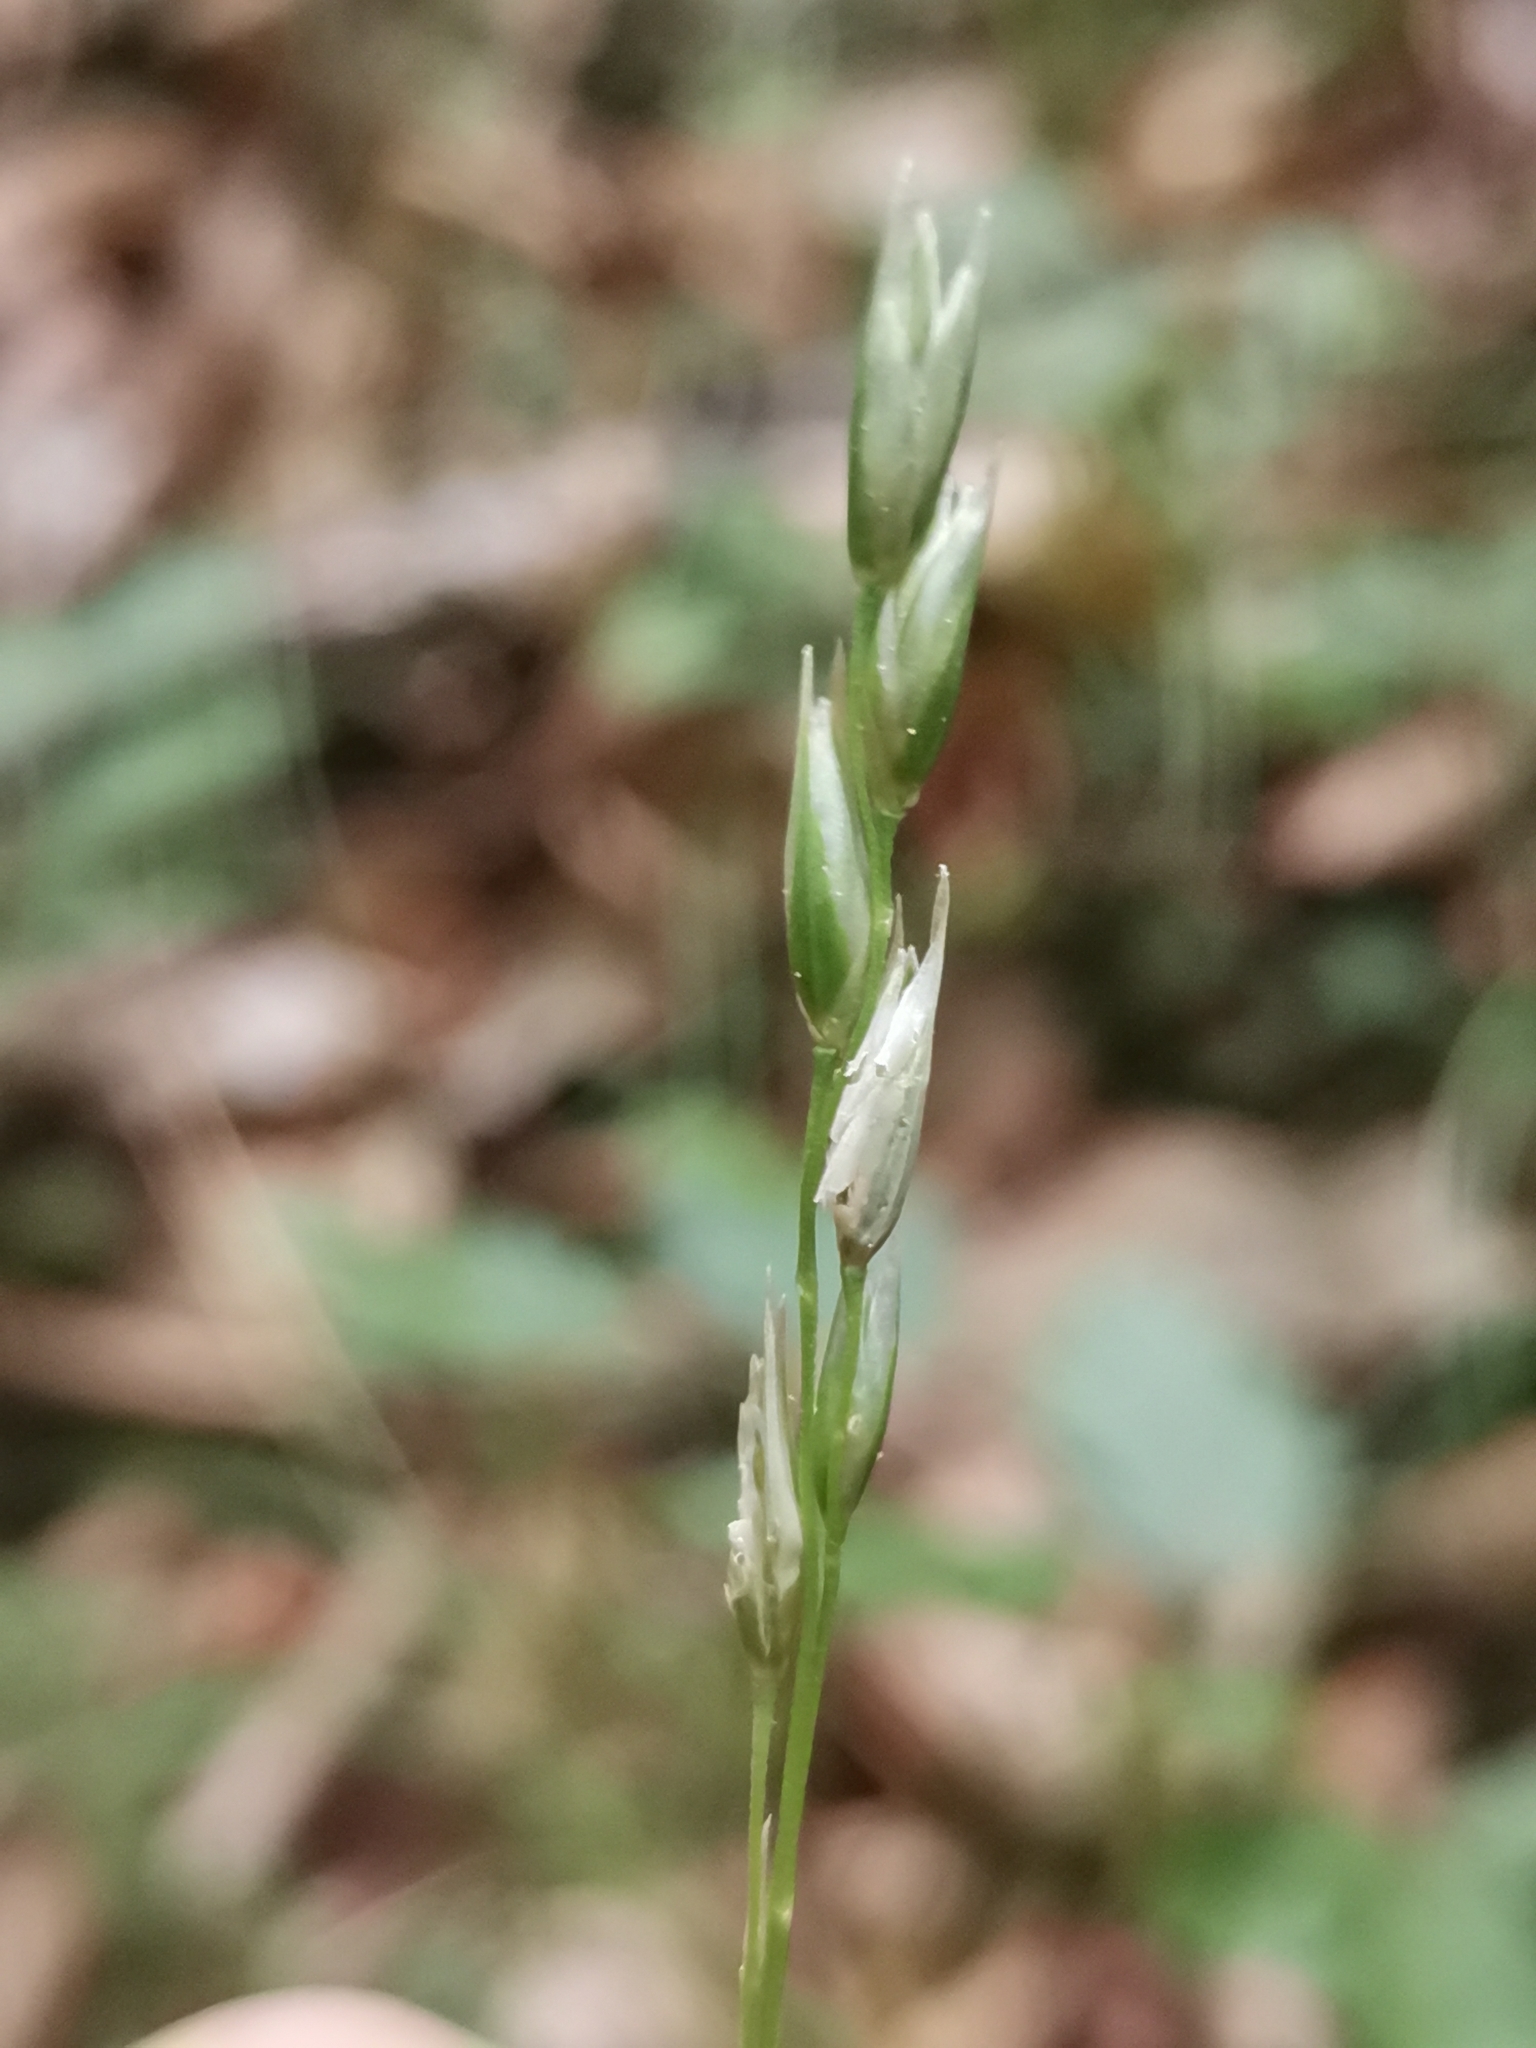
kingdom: Plantae
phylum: Tracheophyta
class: Liliopsida
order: Poales
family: Poaceae
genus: Danthonia
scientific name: Danthonia decumbens
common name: Common heathgrass
